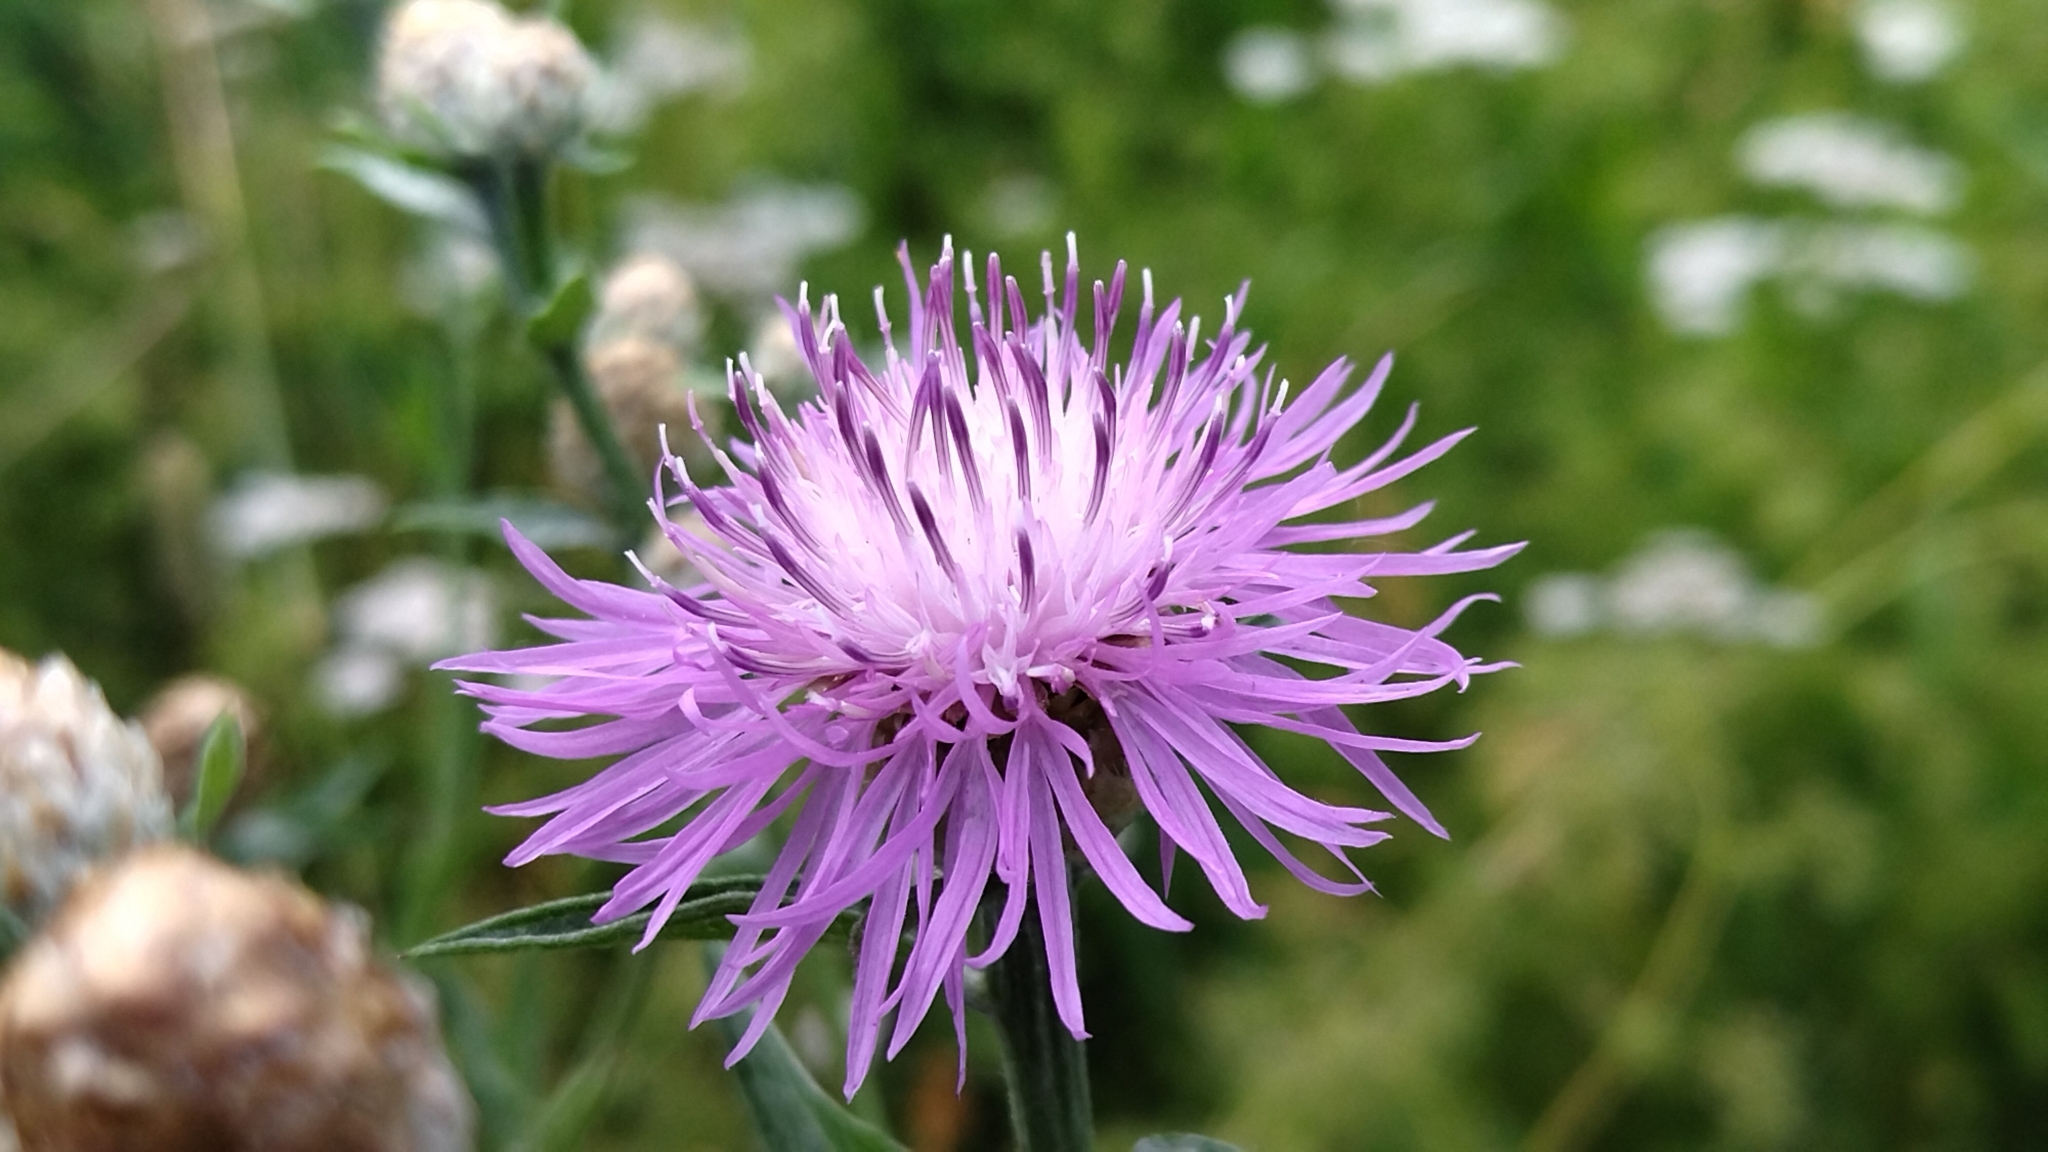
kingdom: Plantae
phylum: Tracheophyta
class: Magnoliopsida
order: Asterales
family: Asteraceae
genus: Centaurea
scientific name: Centaurea jacea
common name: Brown knapweed
